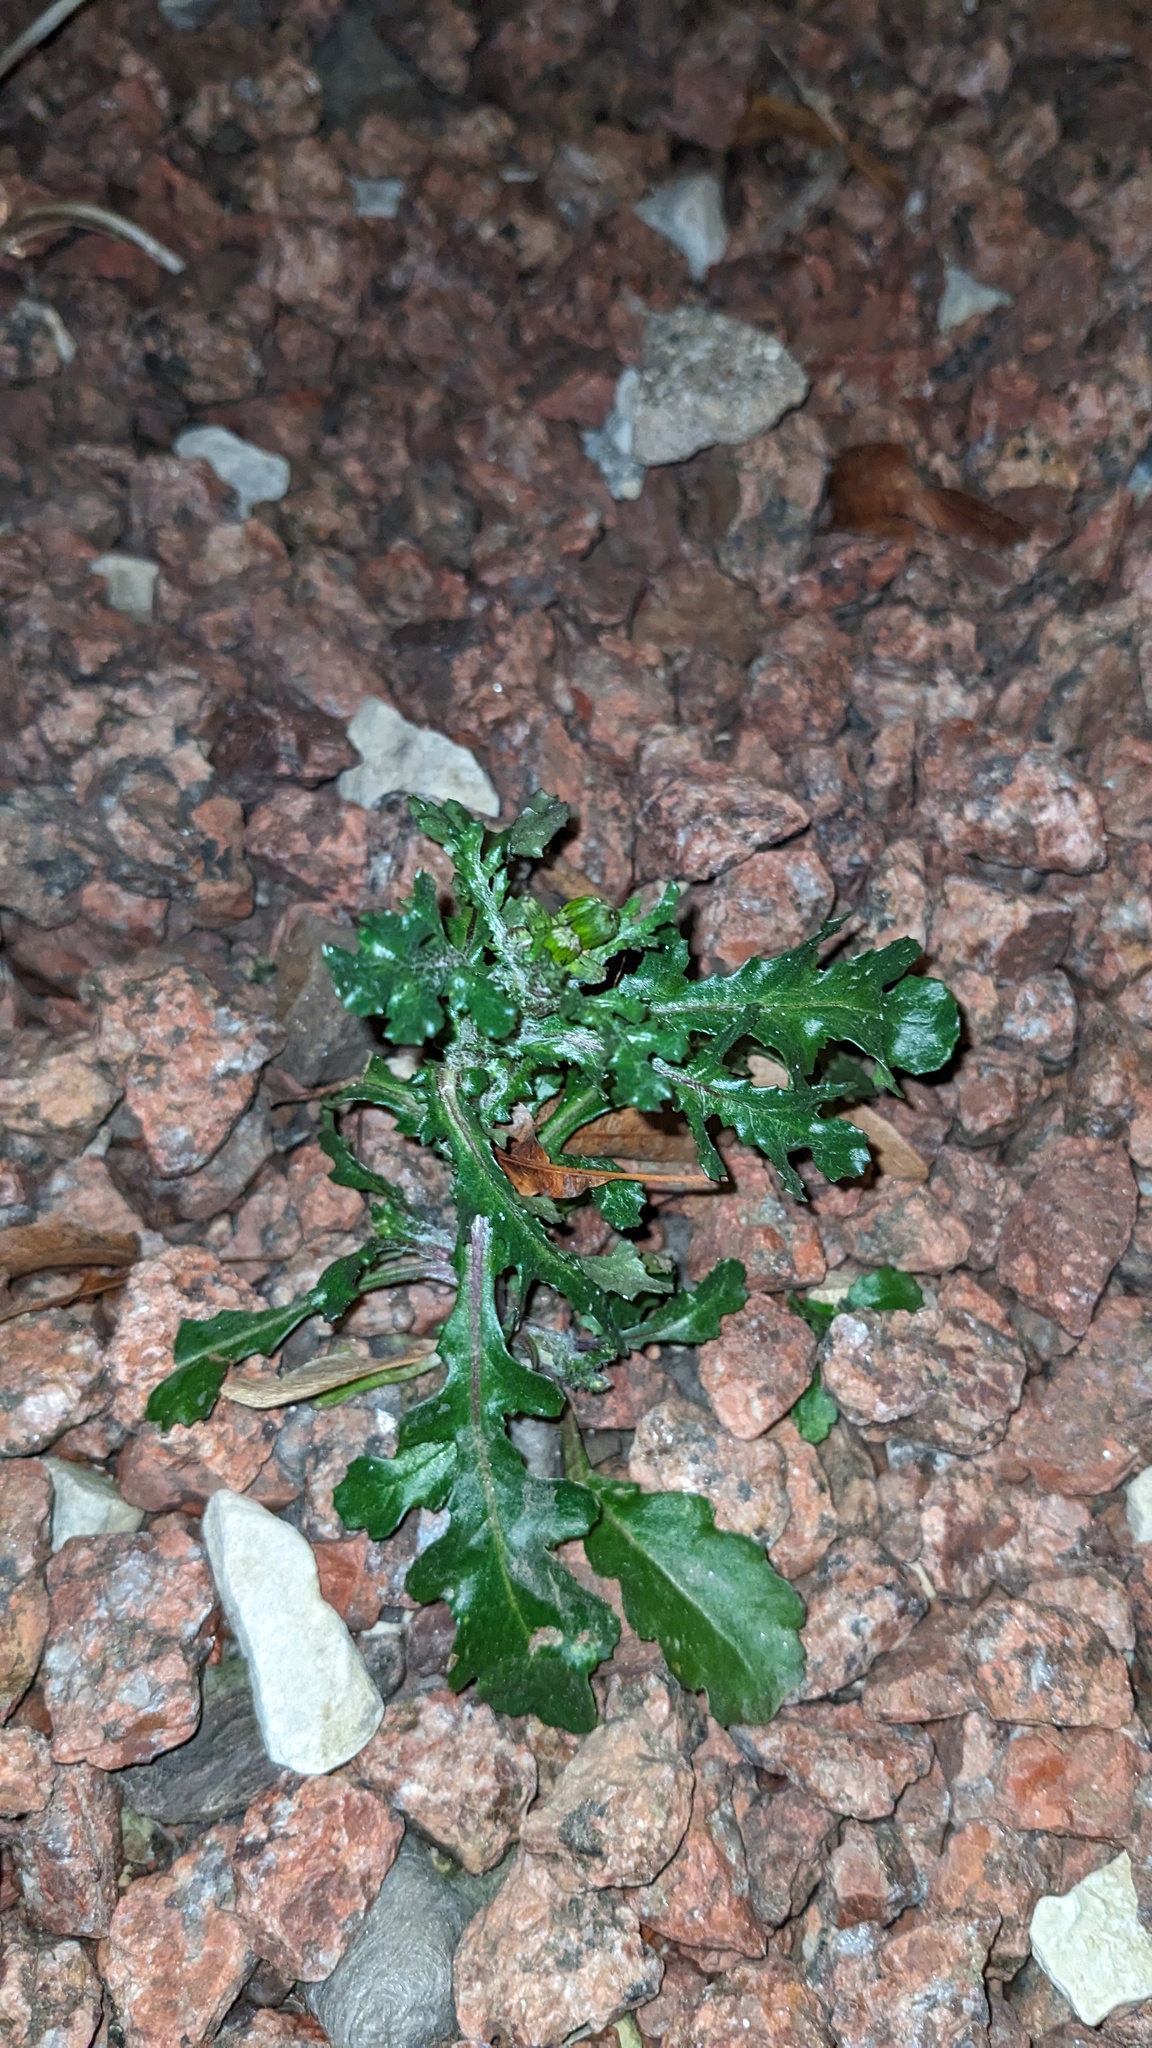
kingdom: Plantae
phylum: Tracheophyta
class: Magnoliopsida
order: Asterales
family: Asteraceae
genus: Senecio
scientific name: Senecio vulgaris
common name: Old-man-in-the-spring
